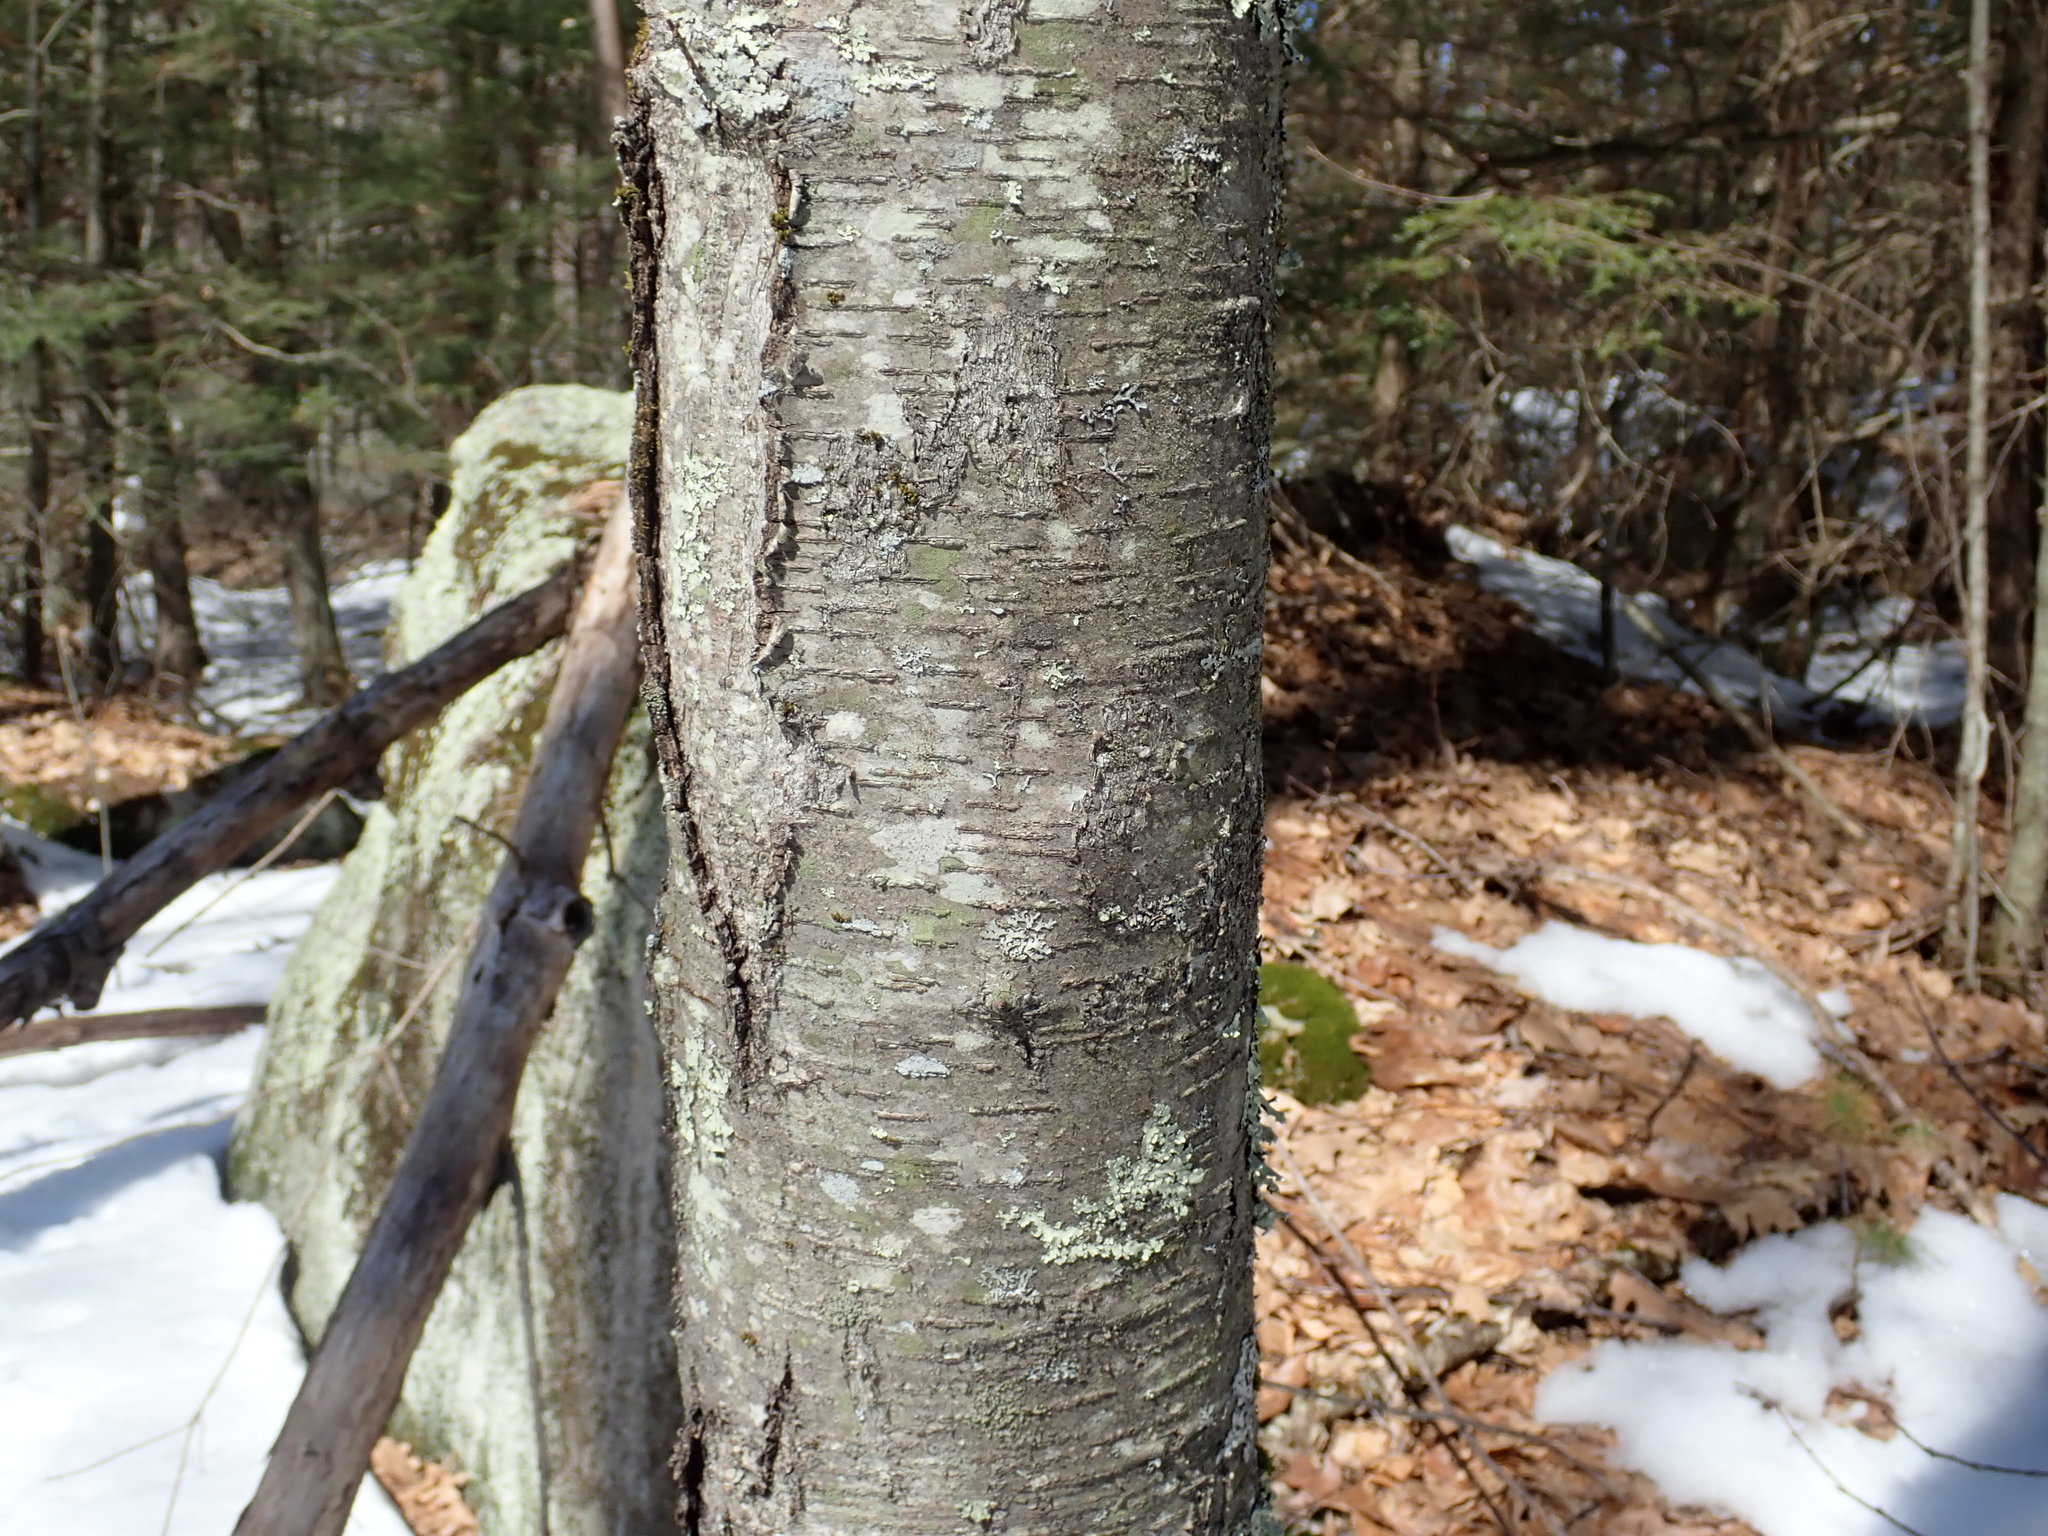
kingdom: Plantae
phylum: Tracheophyta
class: Magnoliopsida
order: Fagales
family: Betulaceae
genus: Betula
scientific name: Betula lenta
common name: Black birch
